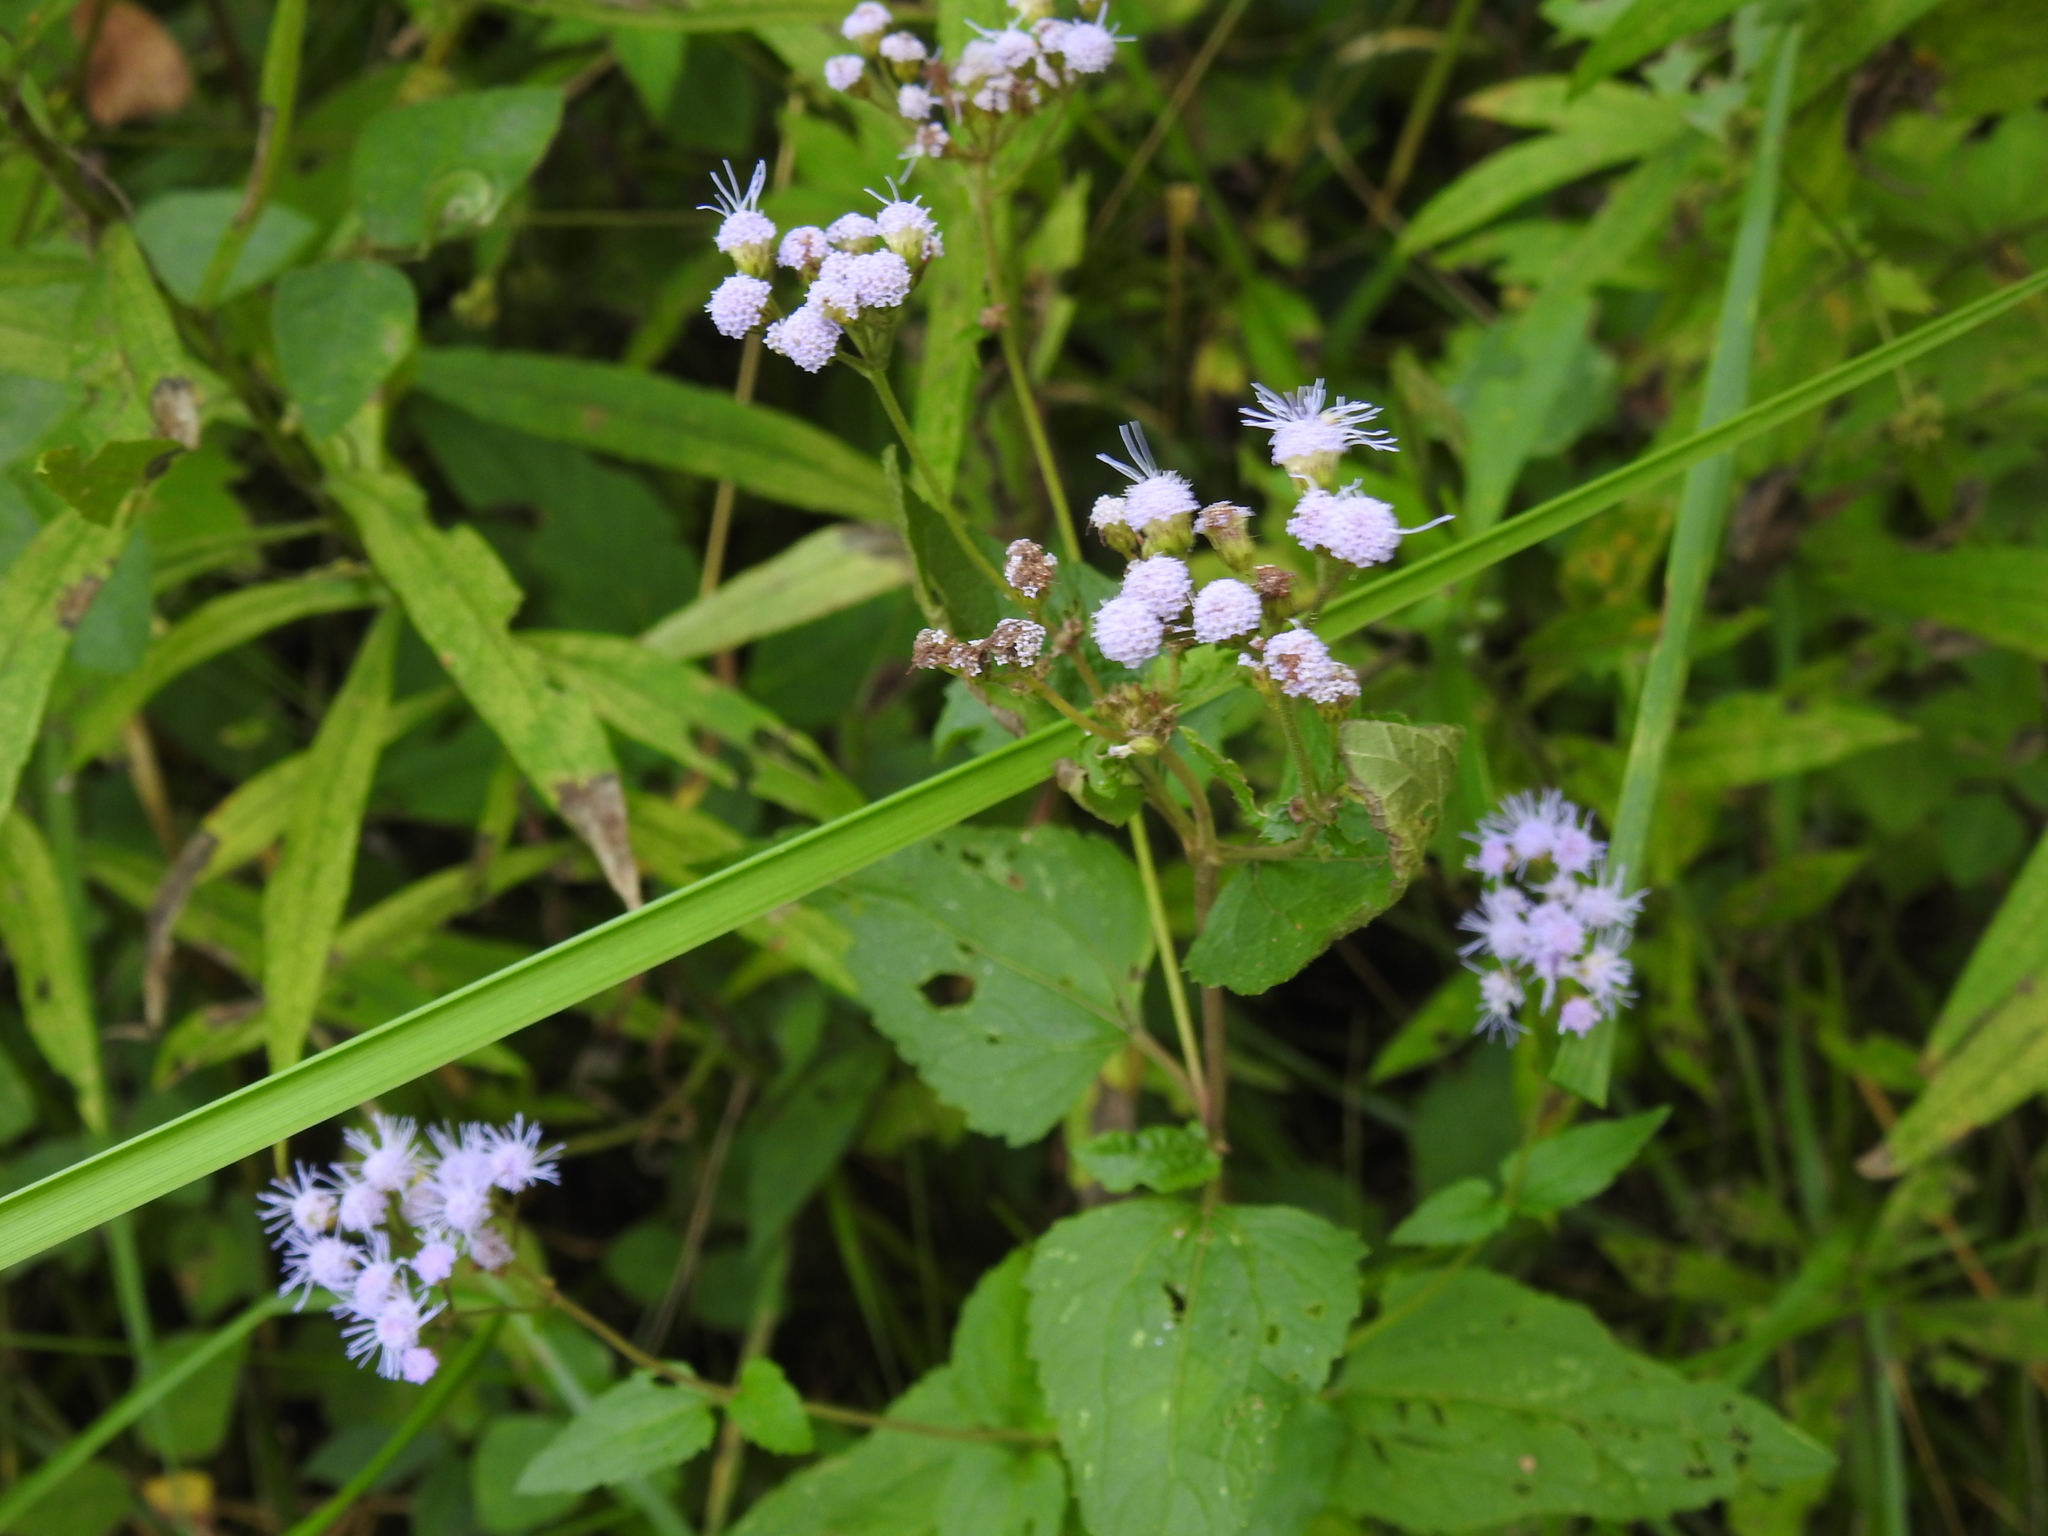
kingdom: Plantae
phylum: Tracheophyta
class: Magnoliopsida
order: Asterales
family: Asteraceae
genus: Conoclinium
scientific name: Conoclinium coelestinum
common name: Blue mistflower
